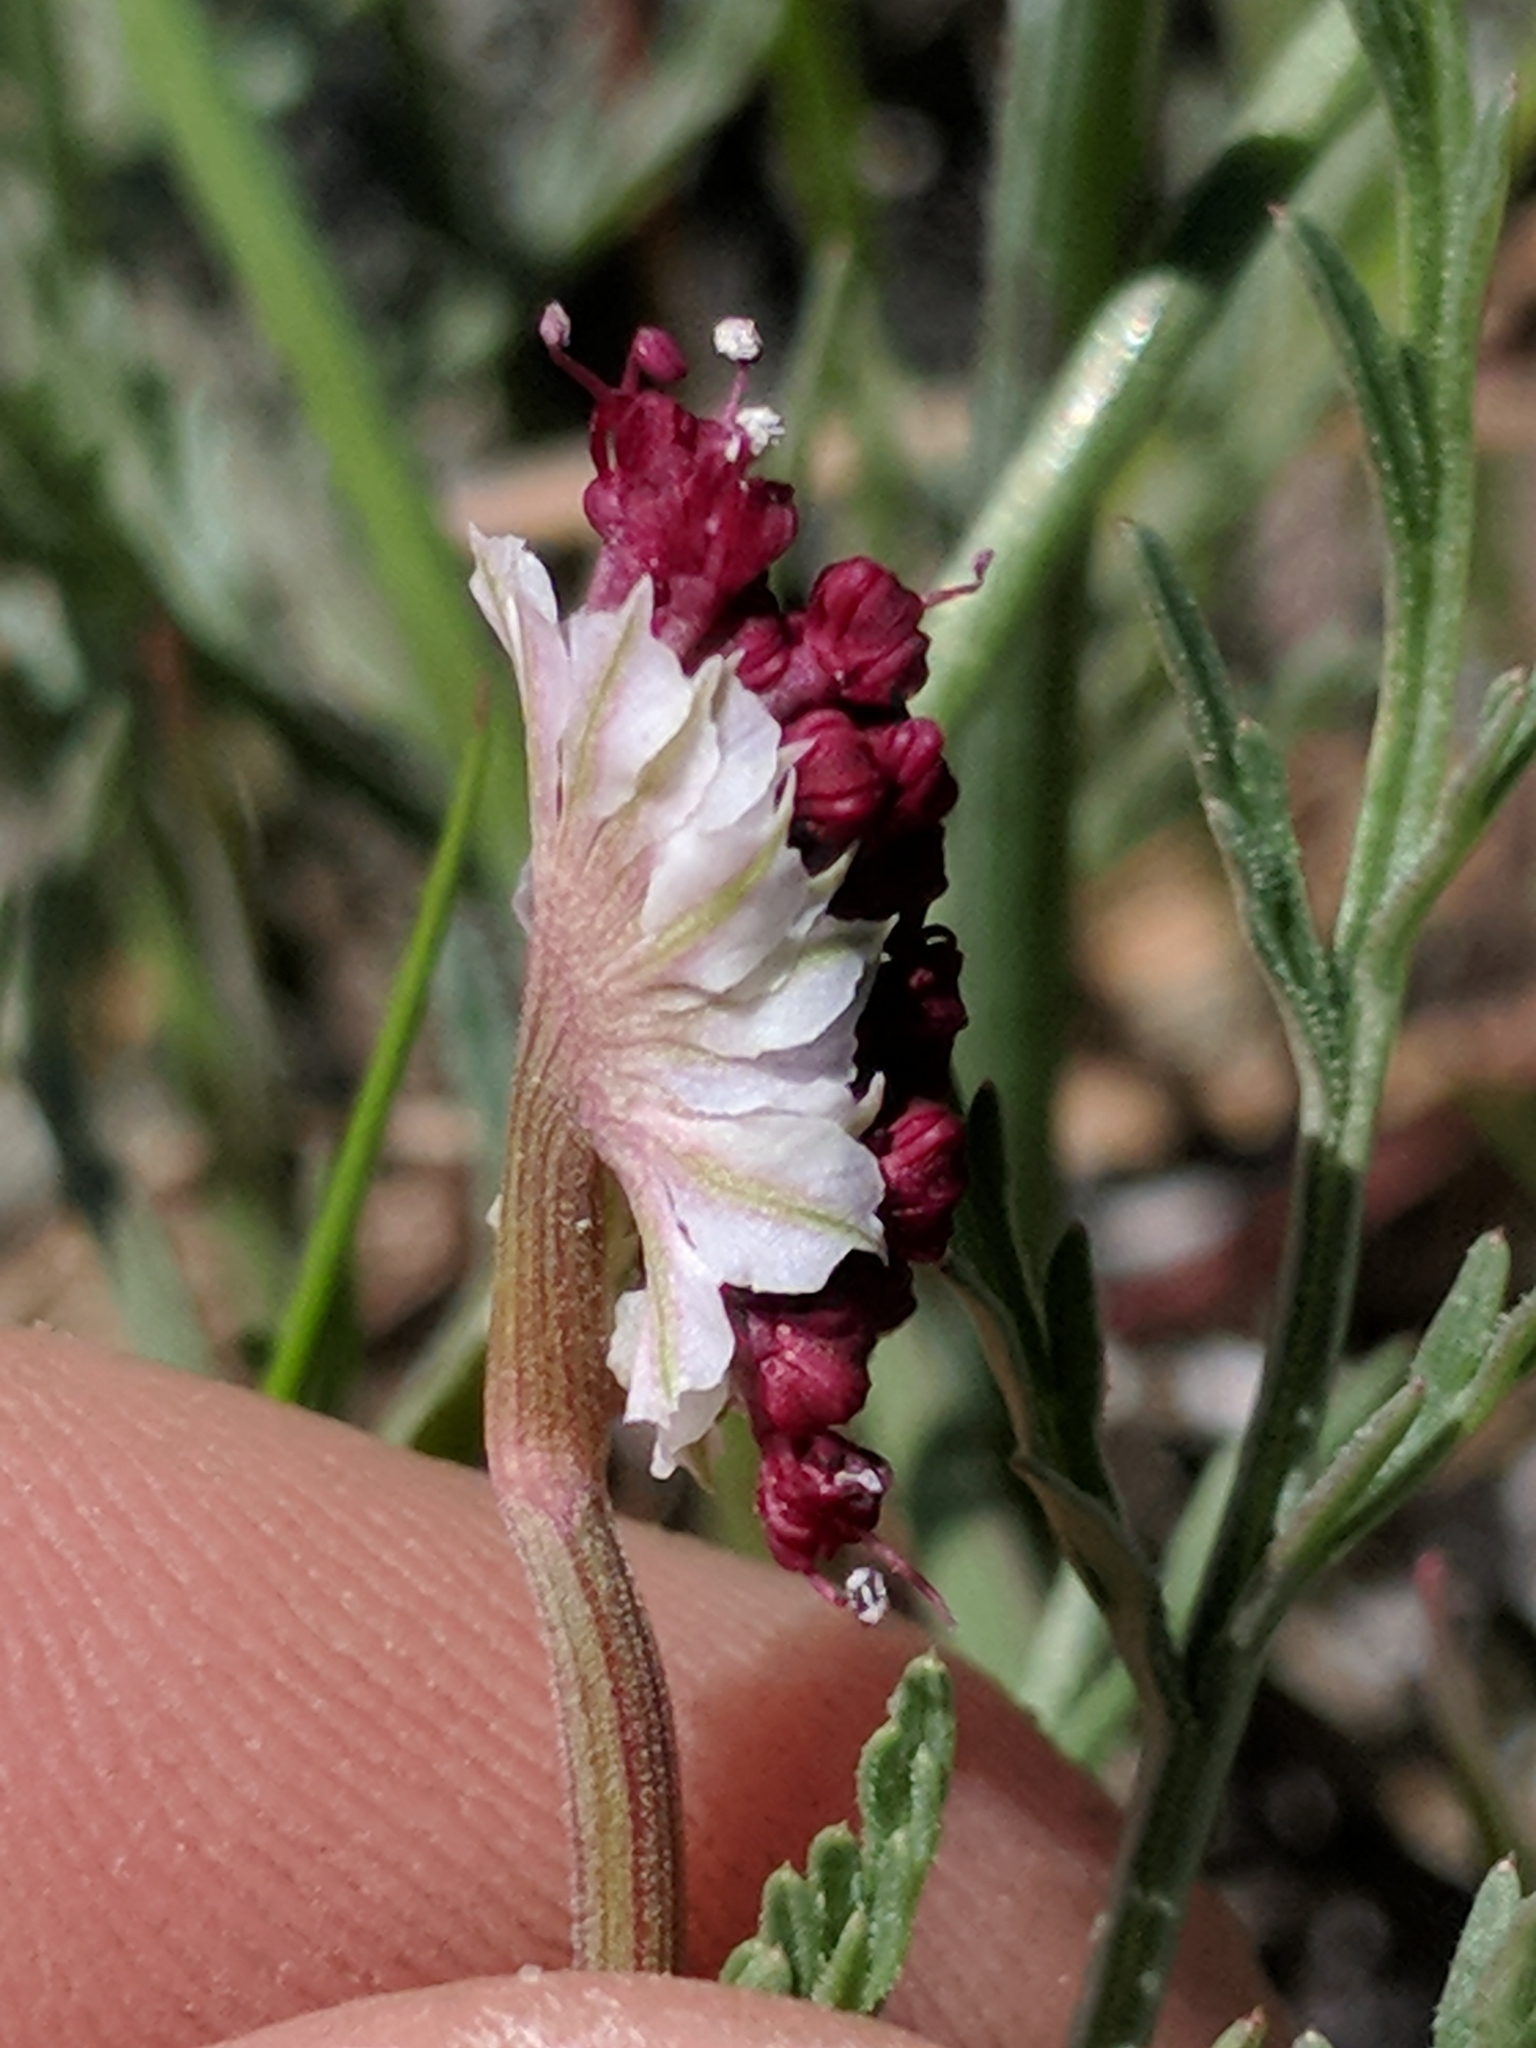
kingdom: Plantae
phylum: Tracheophyta
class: Magnoliopsida
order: Apiales
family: Apiaceae
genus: Lomatium
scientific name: Lomatium hooveri
